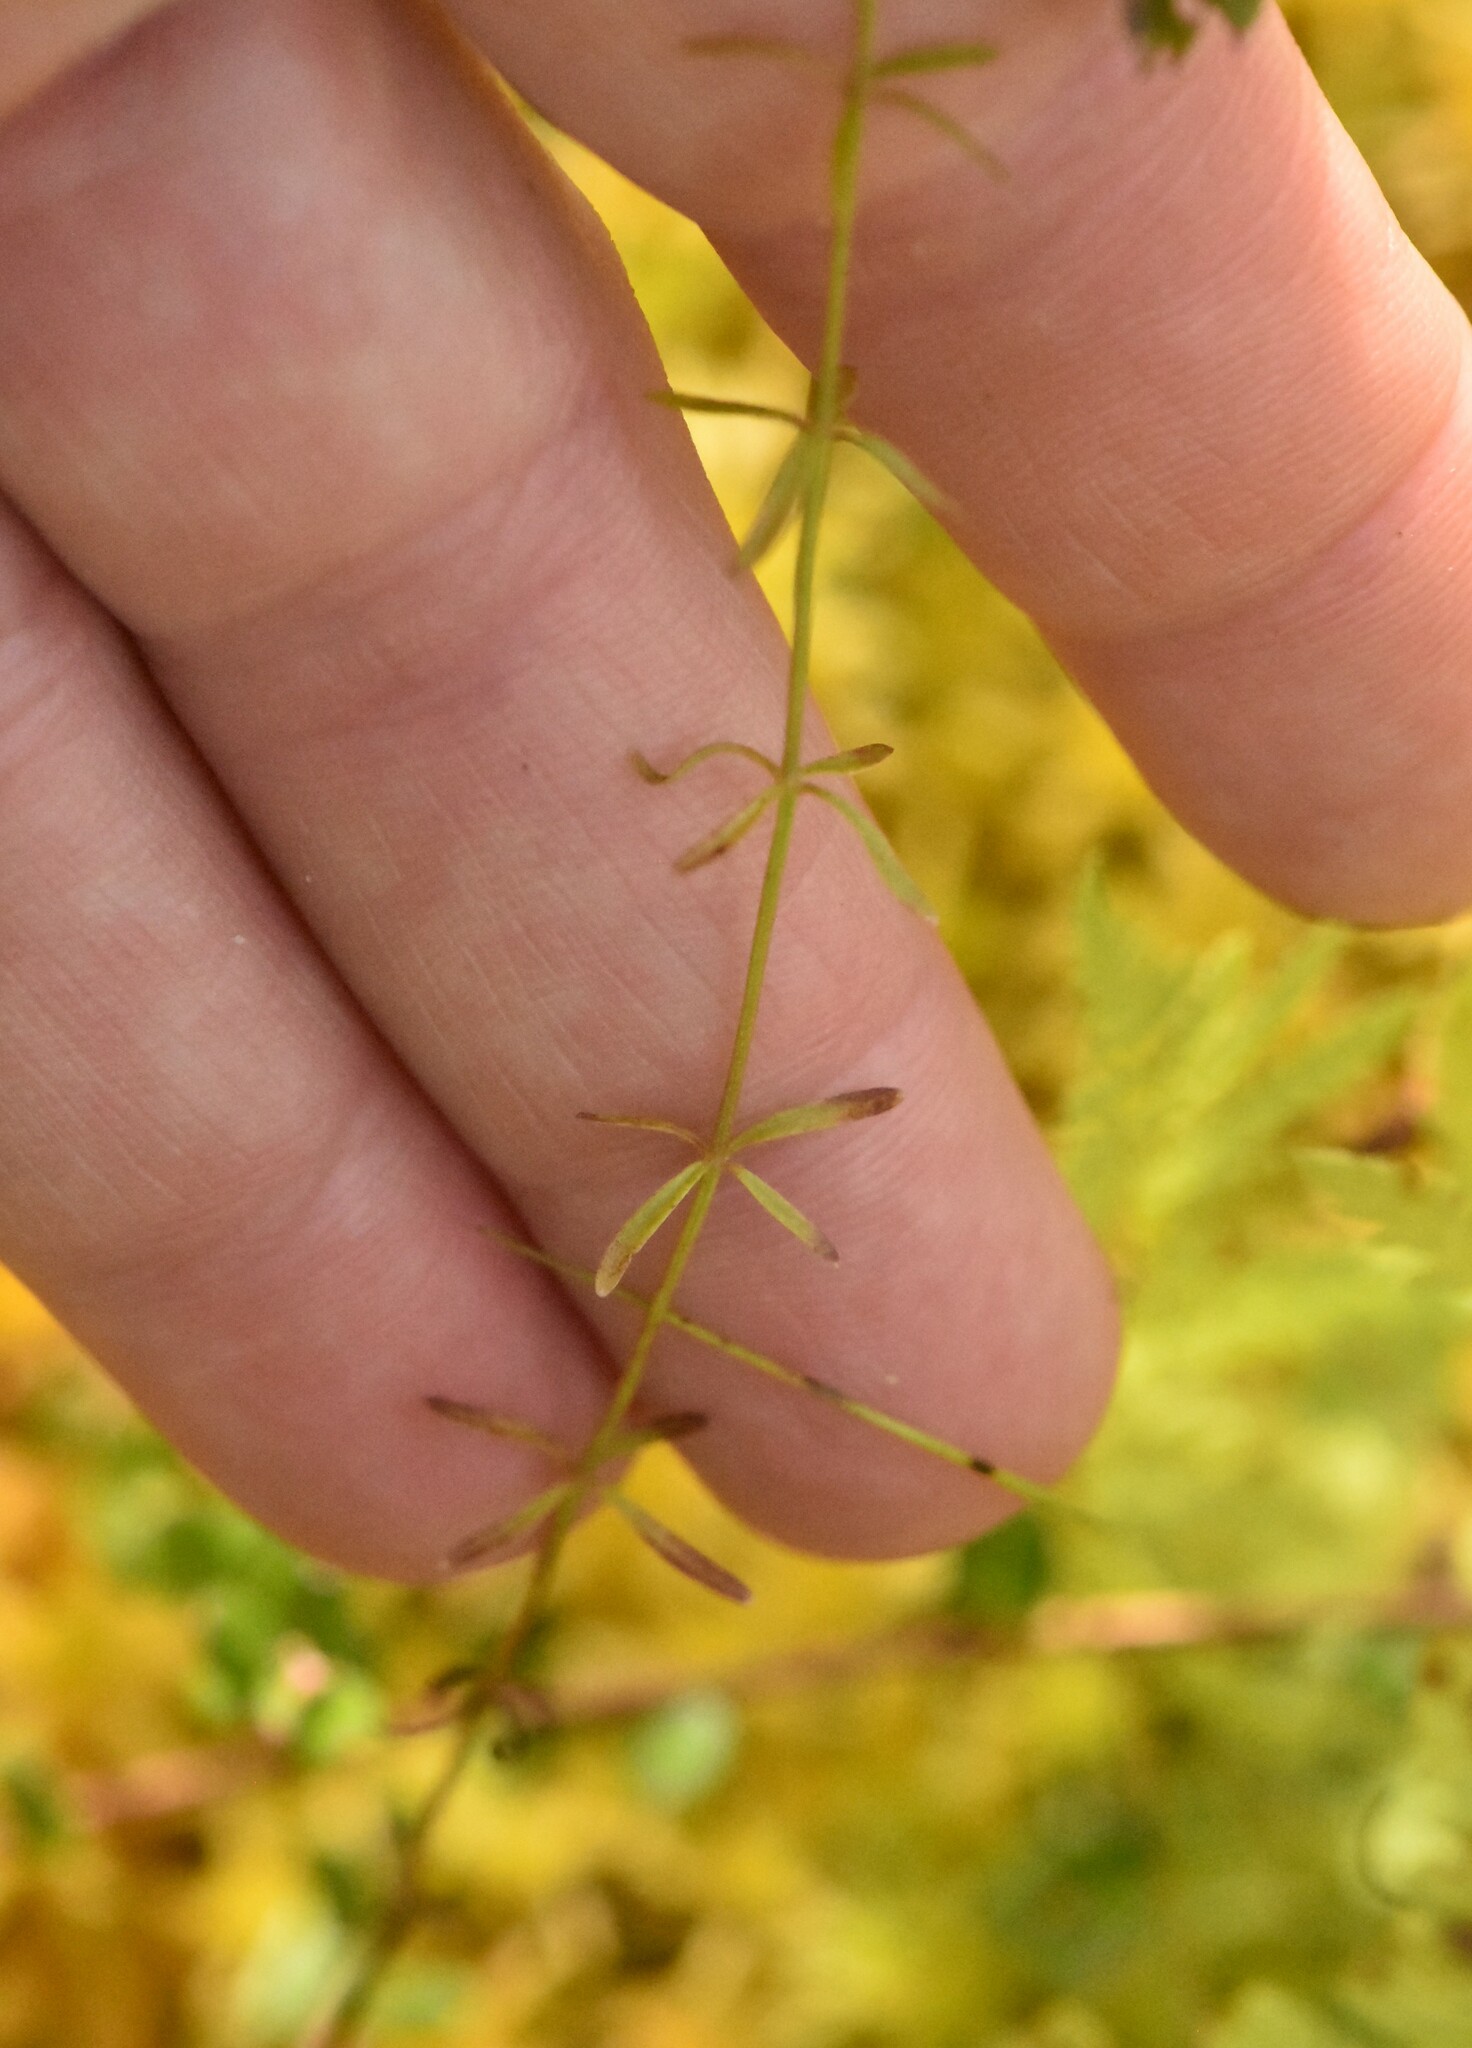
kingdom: Plantae
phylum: Tracheophyta
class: Magnoliopsida
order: Gentianales
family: Rubiaceae
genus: Galium
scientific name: Galium palustre
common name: Common marsh-bedstraw
